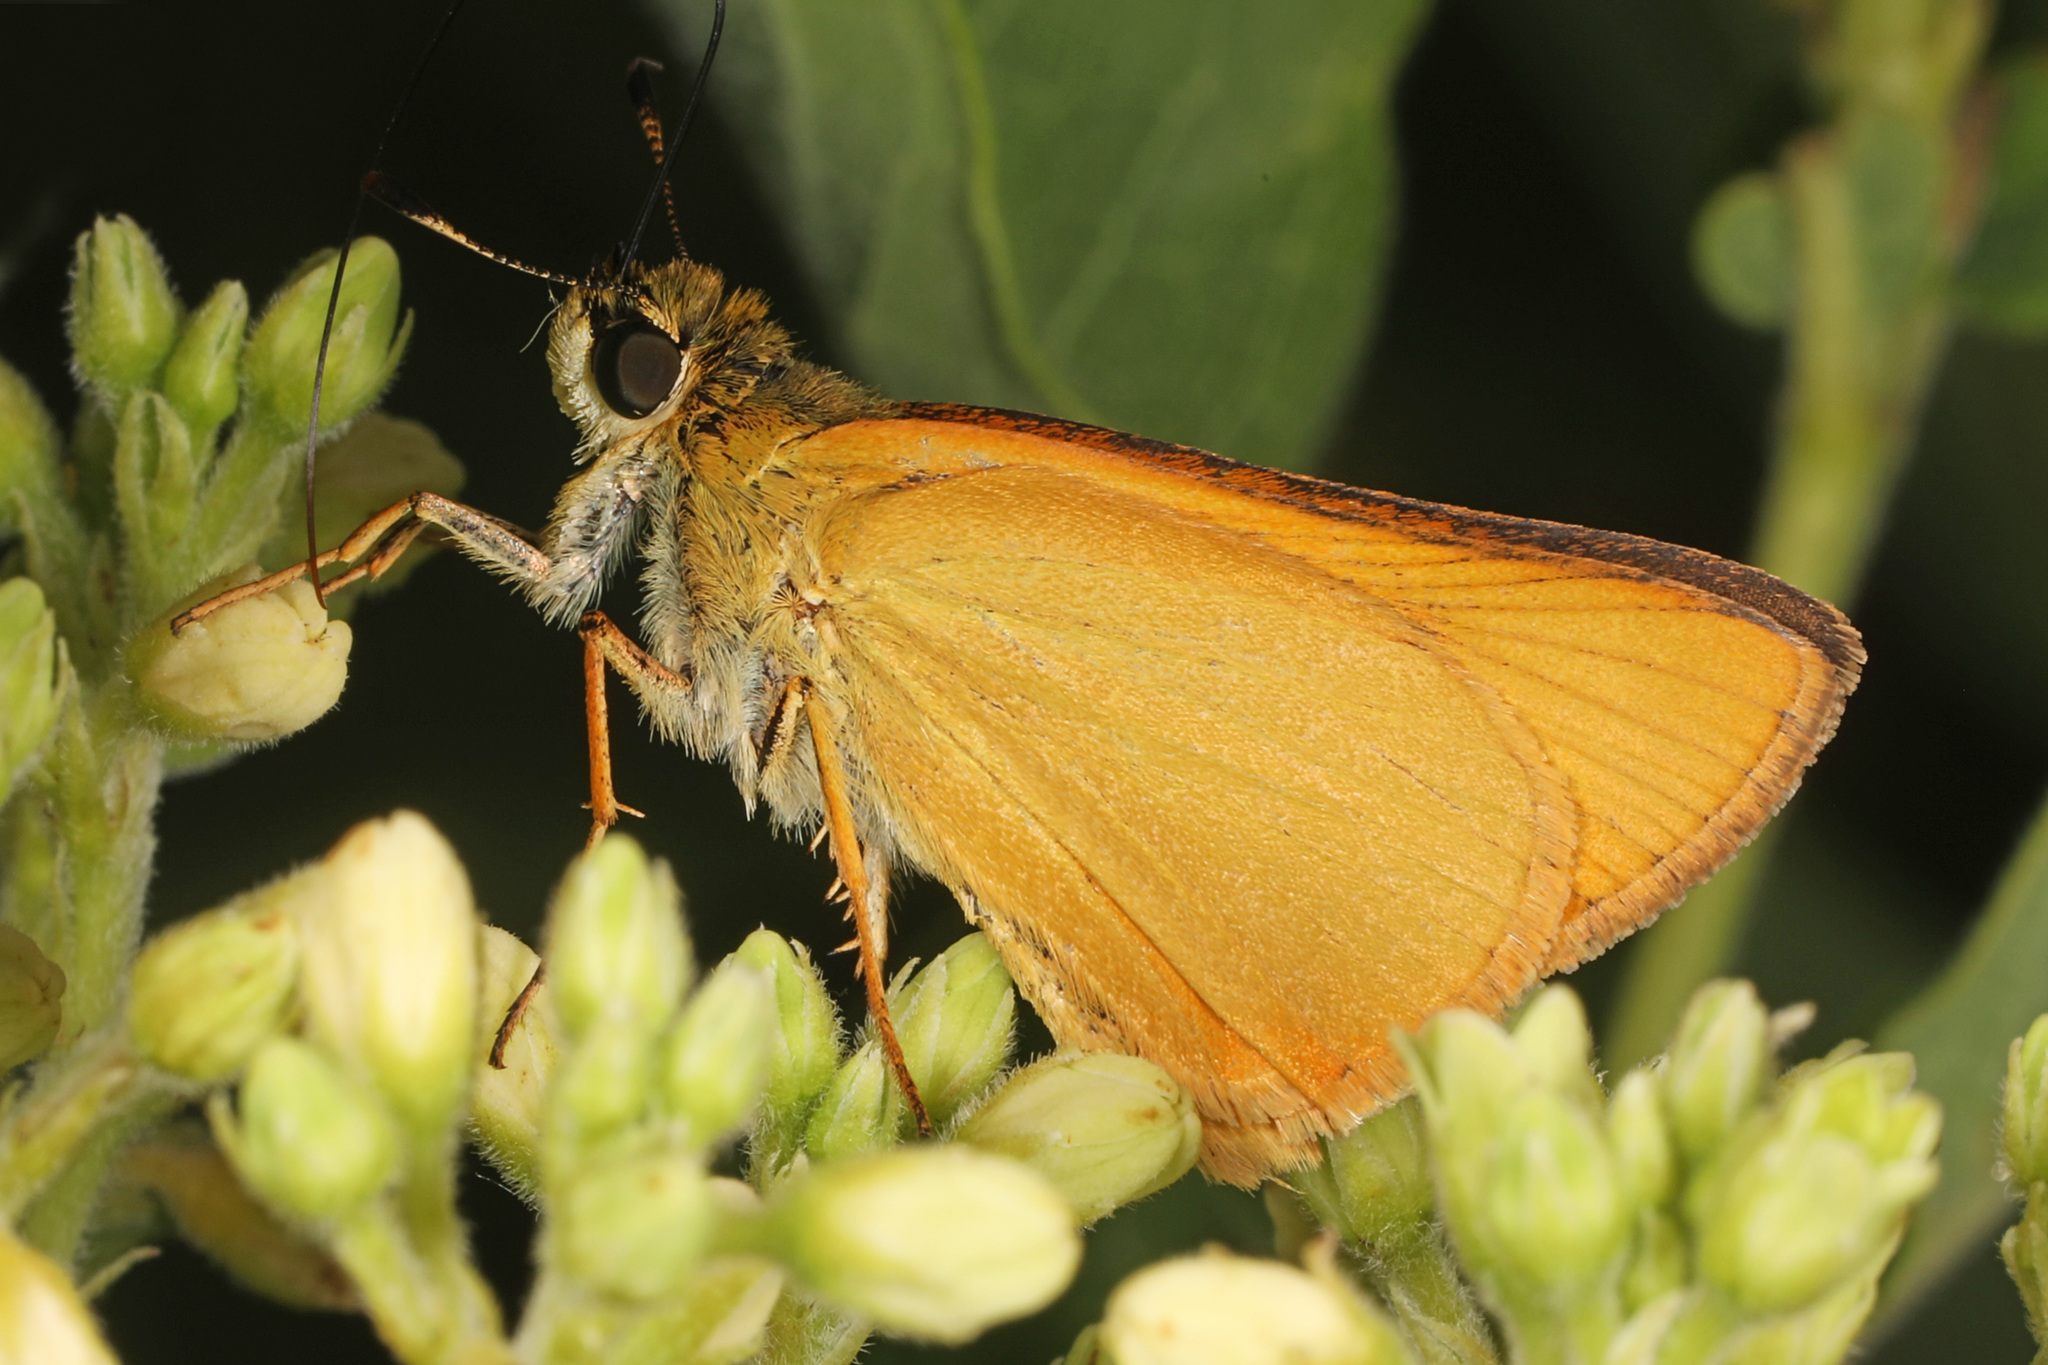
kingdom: Animalia
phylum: Arthropoda
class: Insecta
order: Lepidoptera
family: Hesperiidae
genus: Atrytone
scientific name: Atrytone delaware
